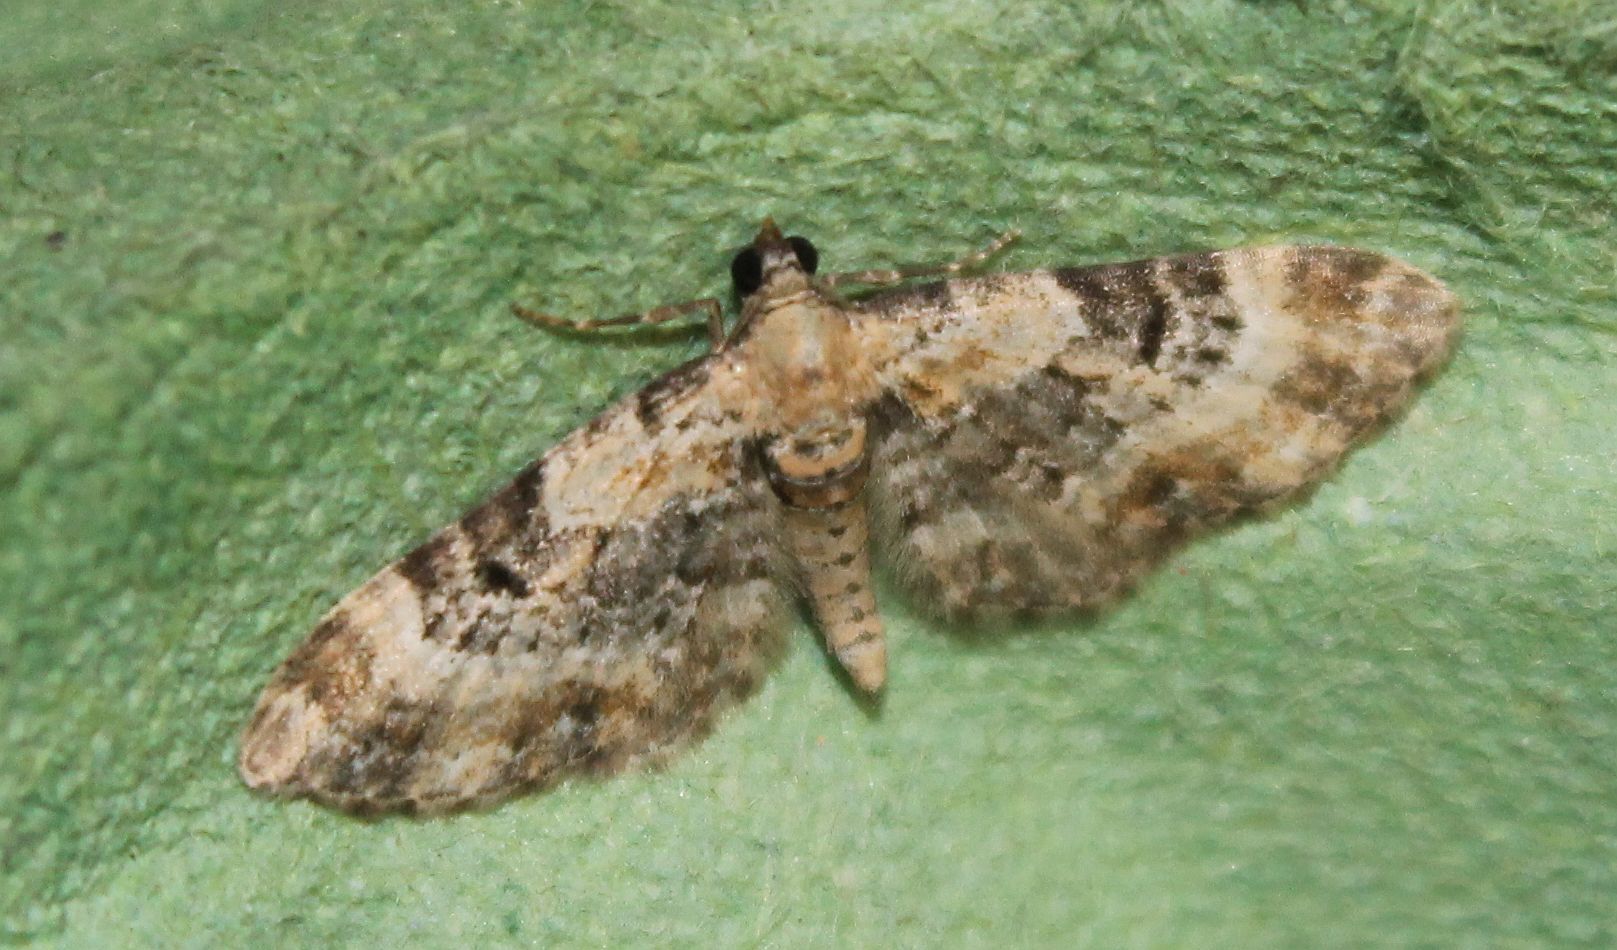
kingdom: Animalia
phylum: Arthropoda
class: Insecta
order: Lepidoptera
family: Geometridae
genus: Eupithecia
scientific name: Eupithecia linariata
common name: Toadflax pug
